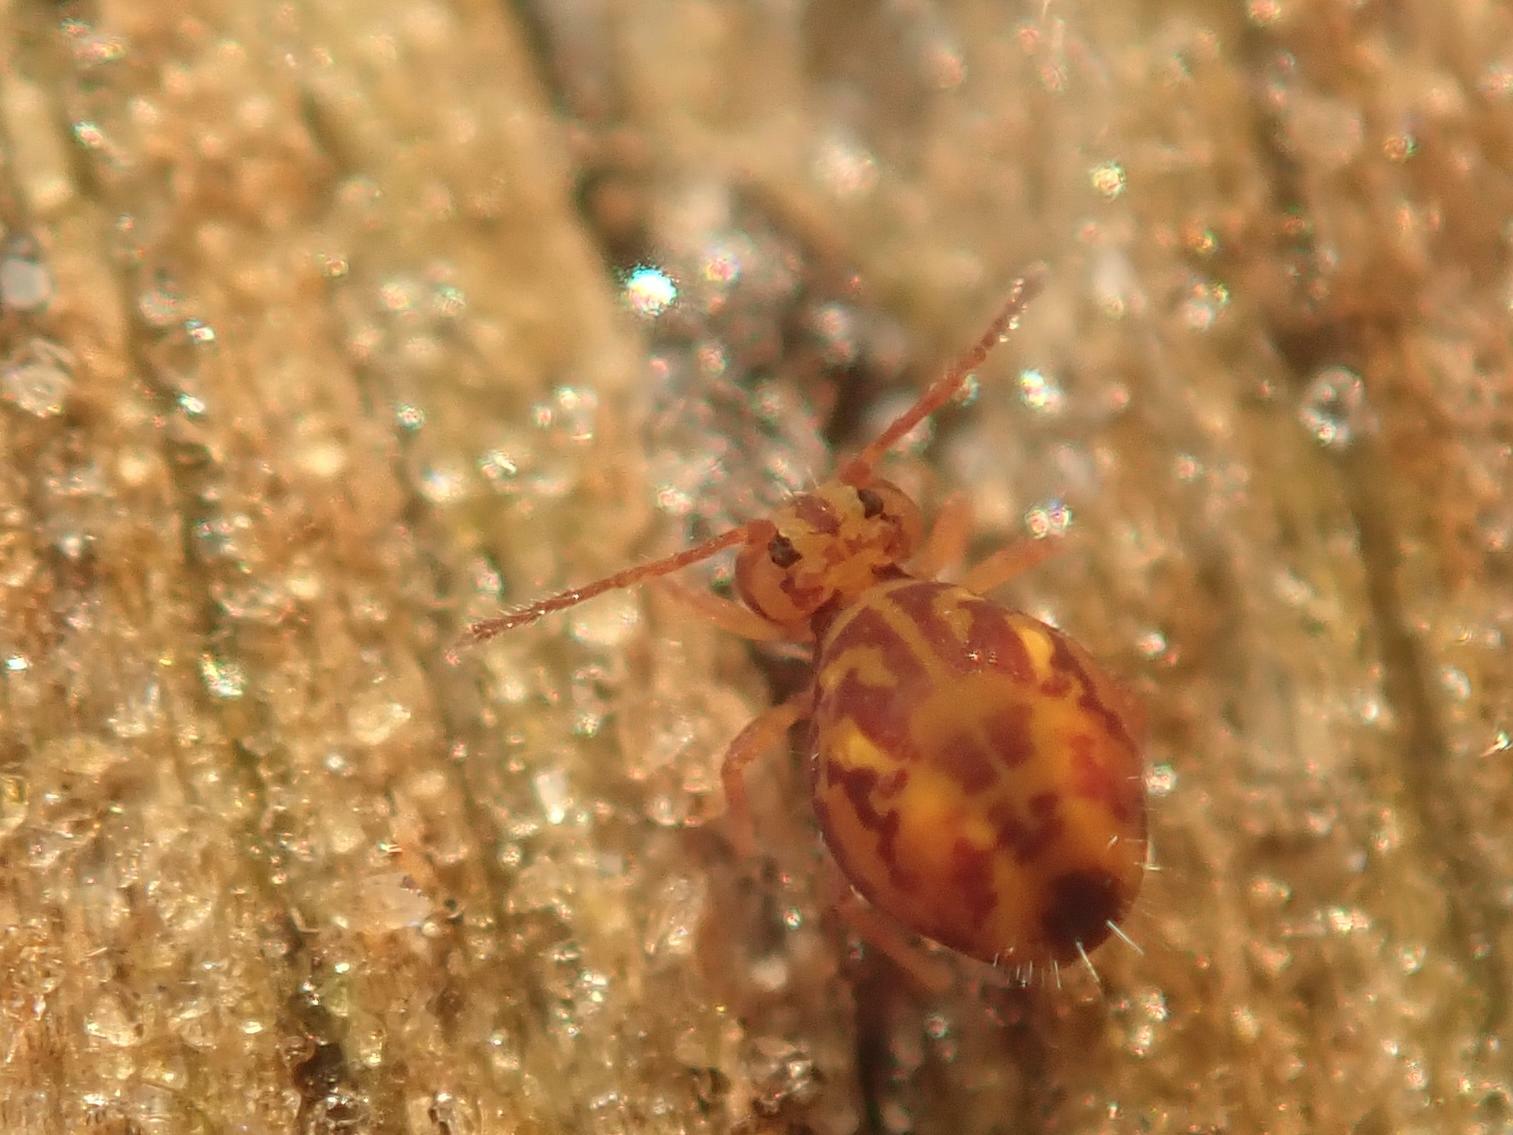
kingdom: Animalia
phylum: Arthropoda
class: Collembola
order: Symphypleona
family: Dicyrtomidae
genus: Dicyrtomina
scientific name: Dicyrtomina ornata
